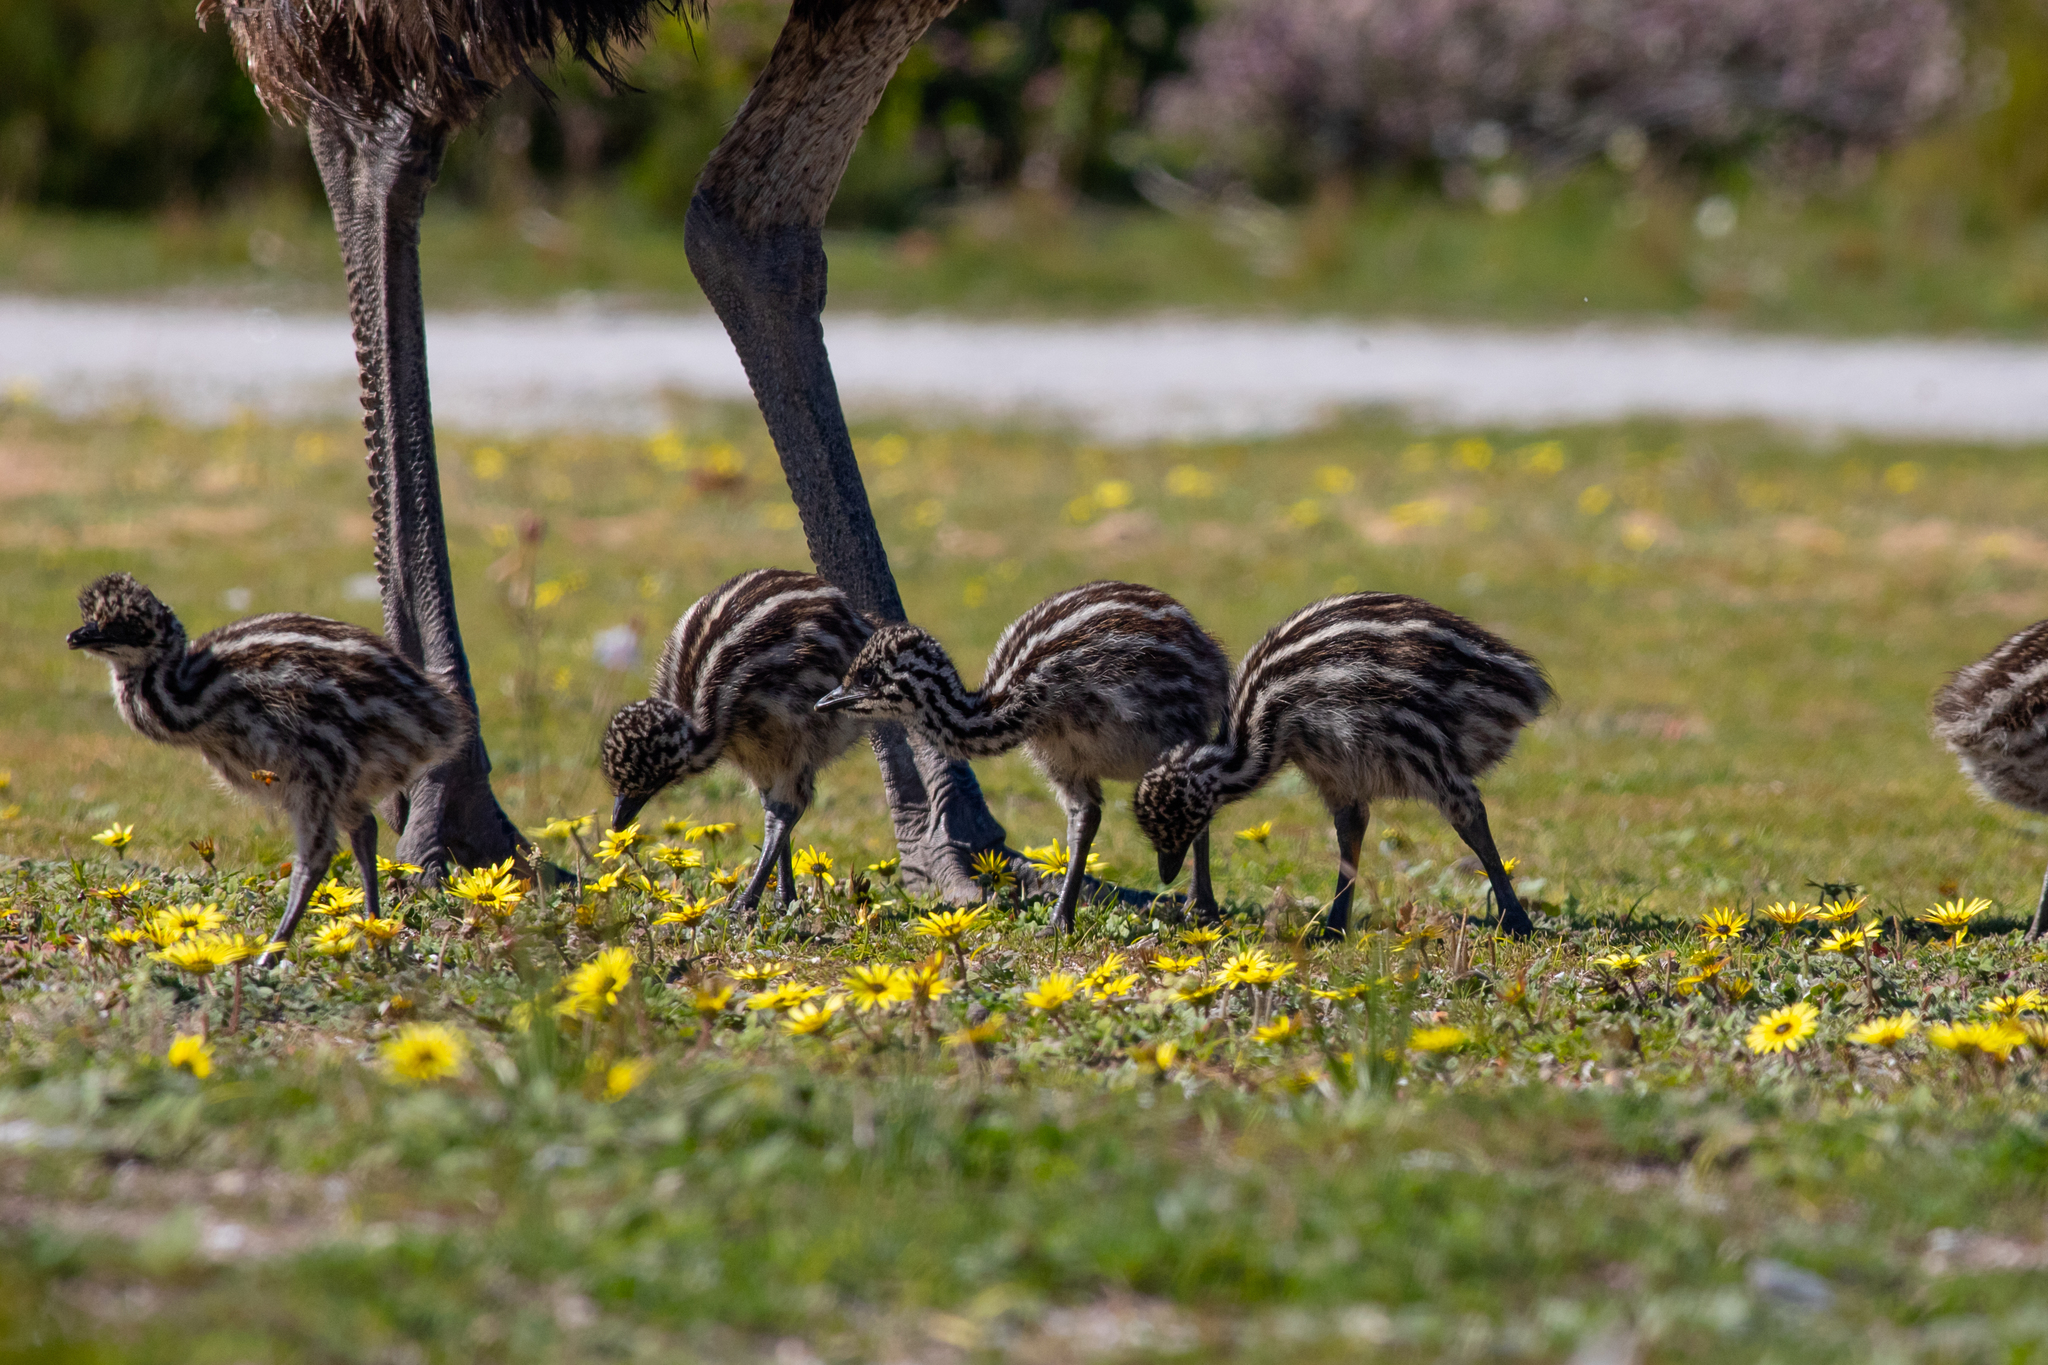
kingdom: Animalia
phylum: Chordata
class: Aves
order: Casuariiformes
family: Dromaiidae
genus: Dromaius
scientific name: Dromaius novaehollandiae
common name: Emu
